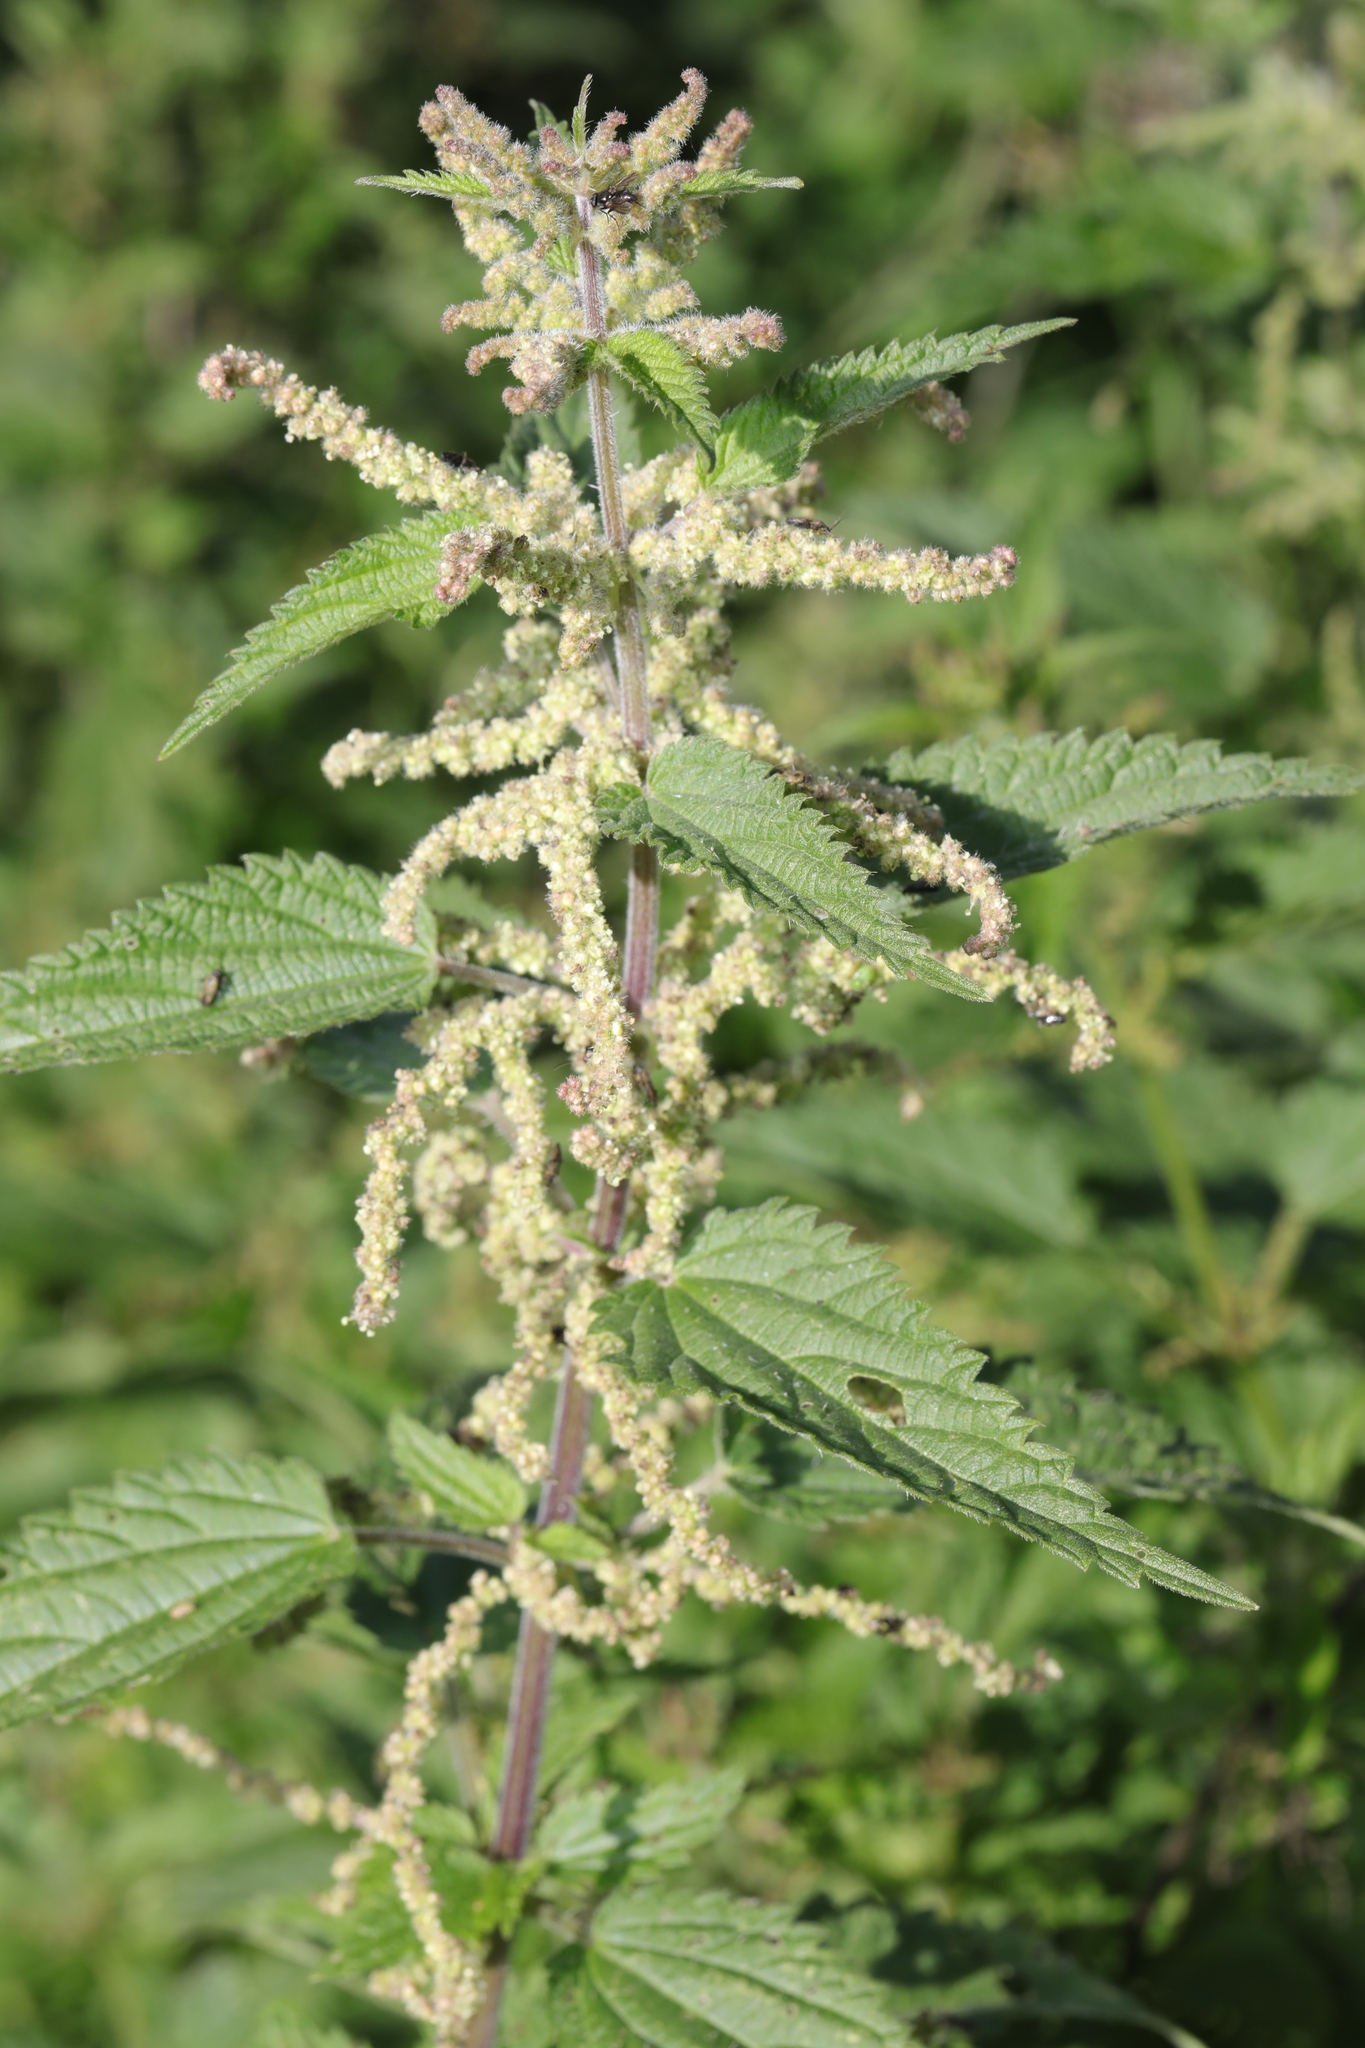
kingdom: Plantae
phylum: Tracheophyta
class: Magnoliopsida
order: Rosales
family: Urticaceae
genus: Urtica
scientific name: Urtica dioica
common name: Common nettle
